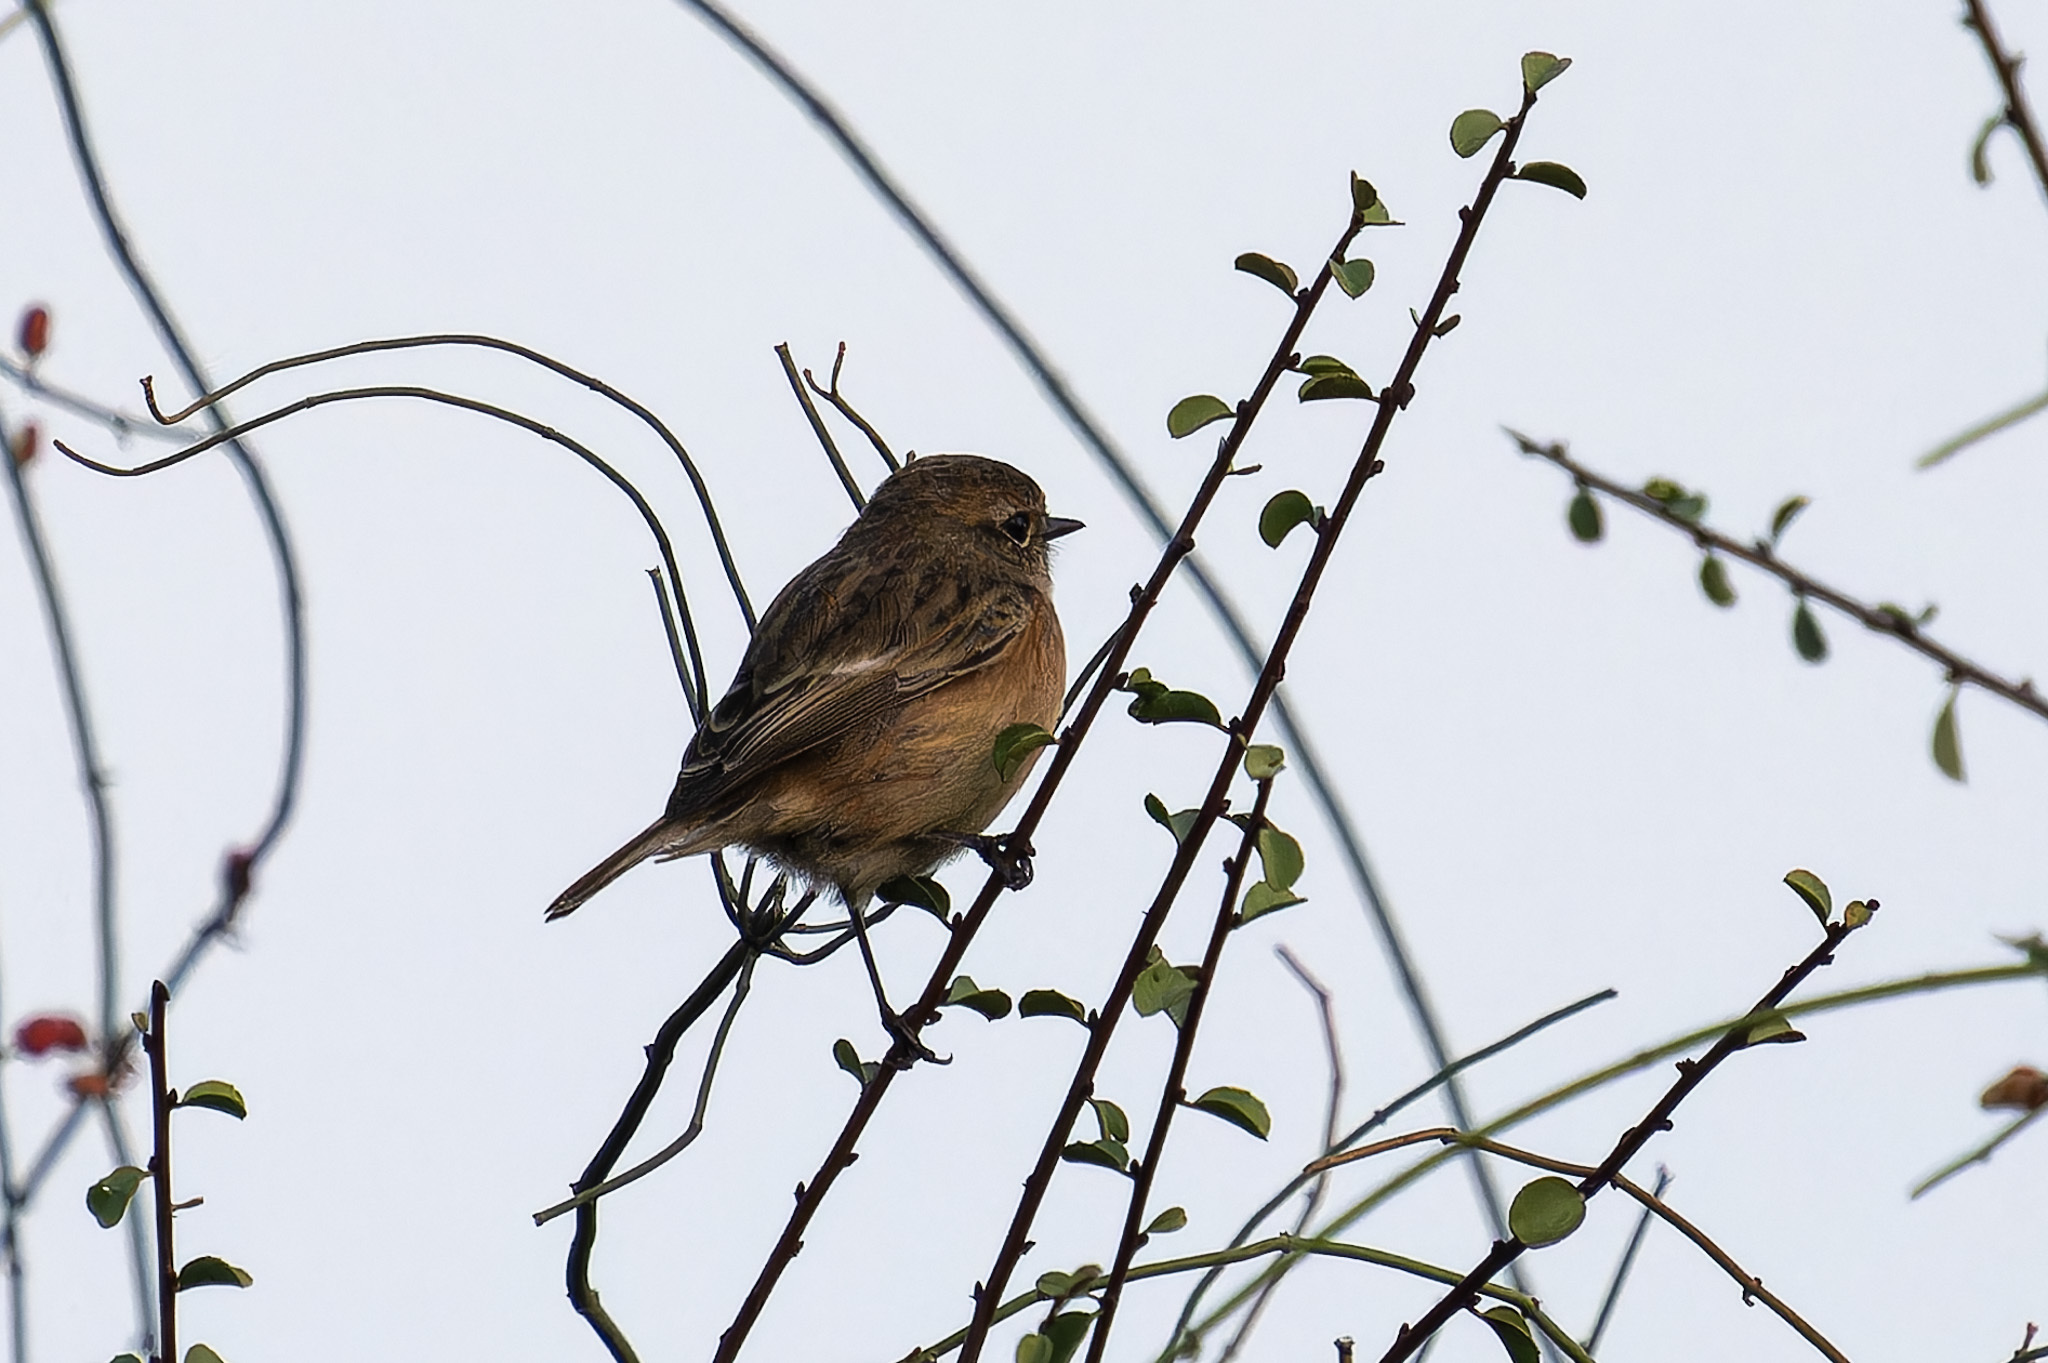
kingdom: Animalia
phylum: Chordata
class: Aves
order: Passeriformes
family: Muscicapidae
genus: Saxicola
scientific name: Saxicola rubicola
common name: European stonechat
